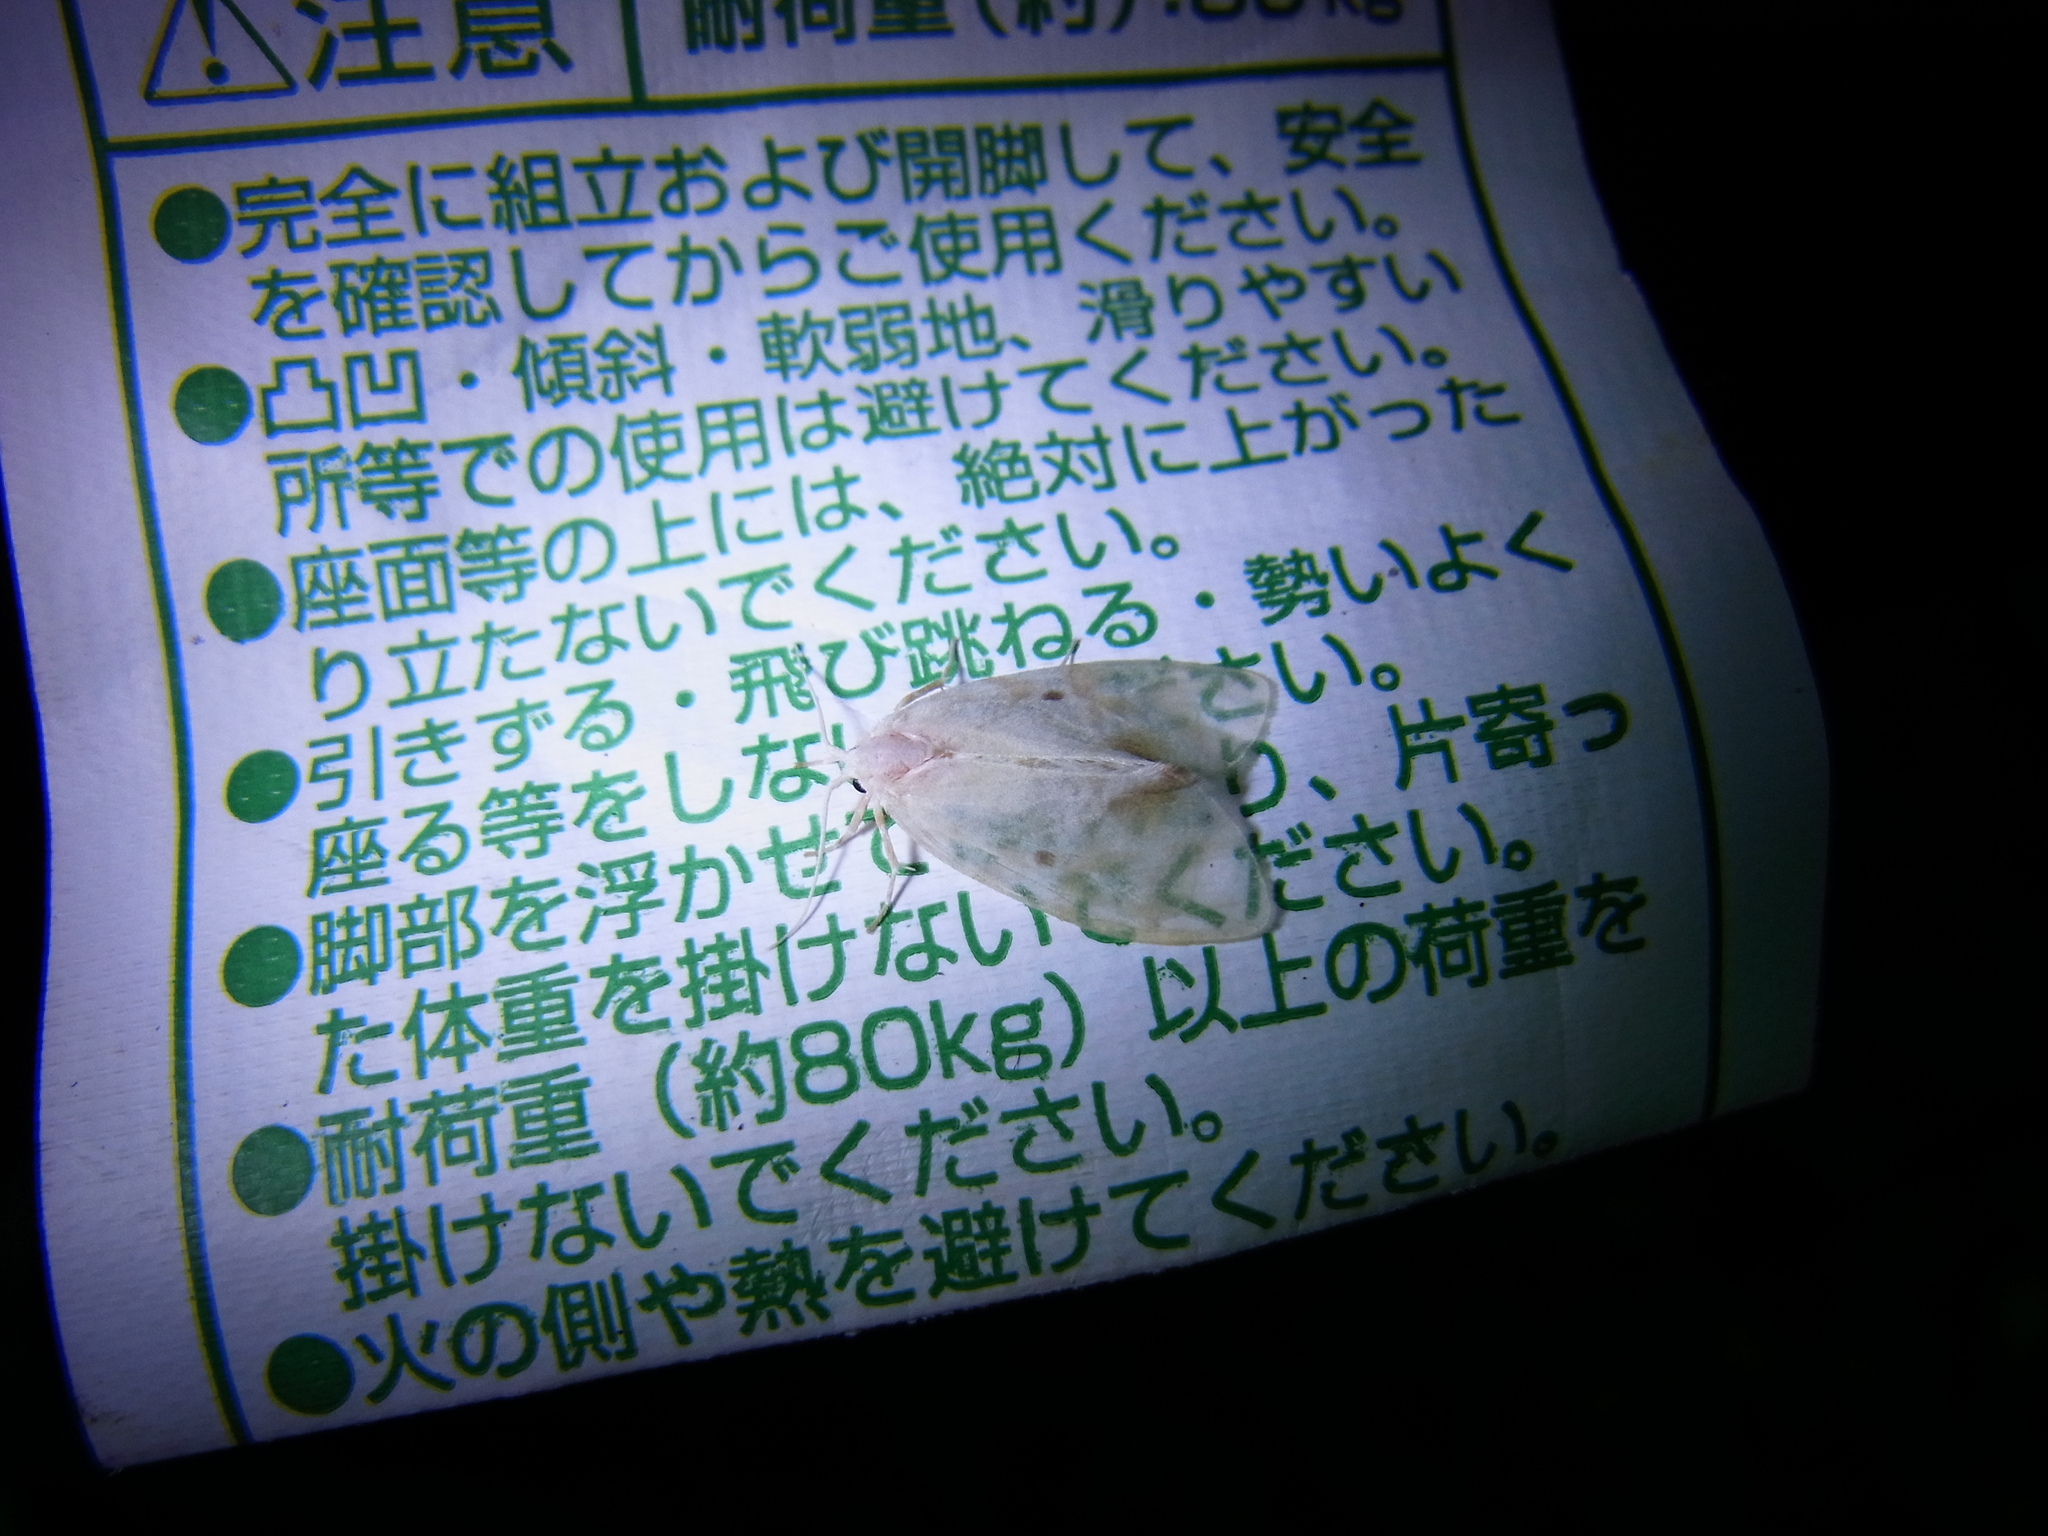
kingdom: Animalia
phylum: Arthropoda
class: Insecta
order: Lepidoptera
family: Erebidae
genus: Nudaria
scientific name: Nudaria ranruna
